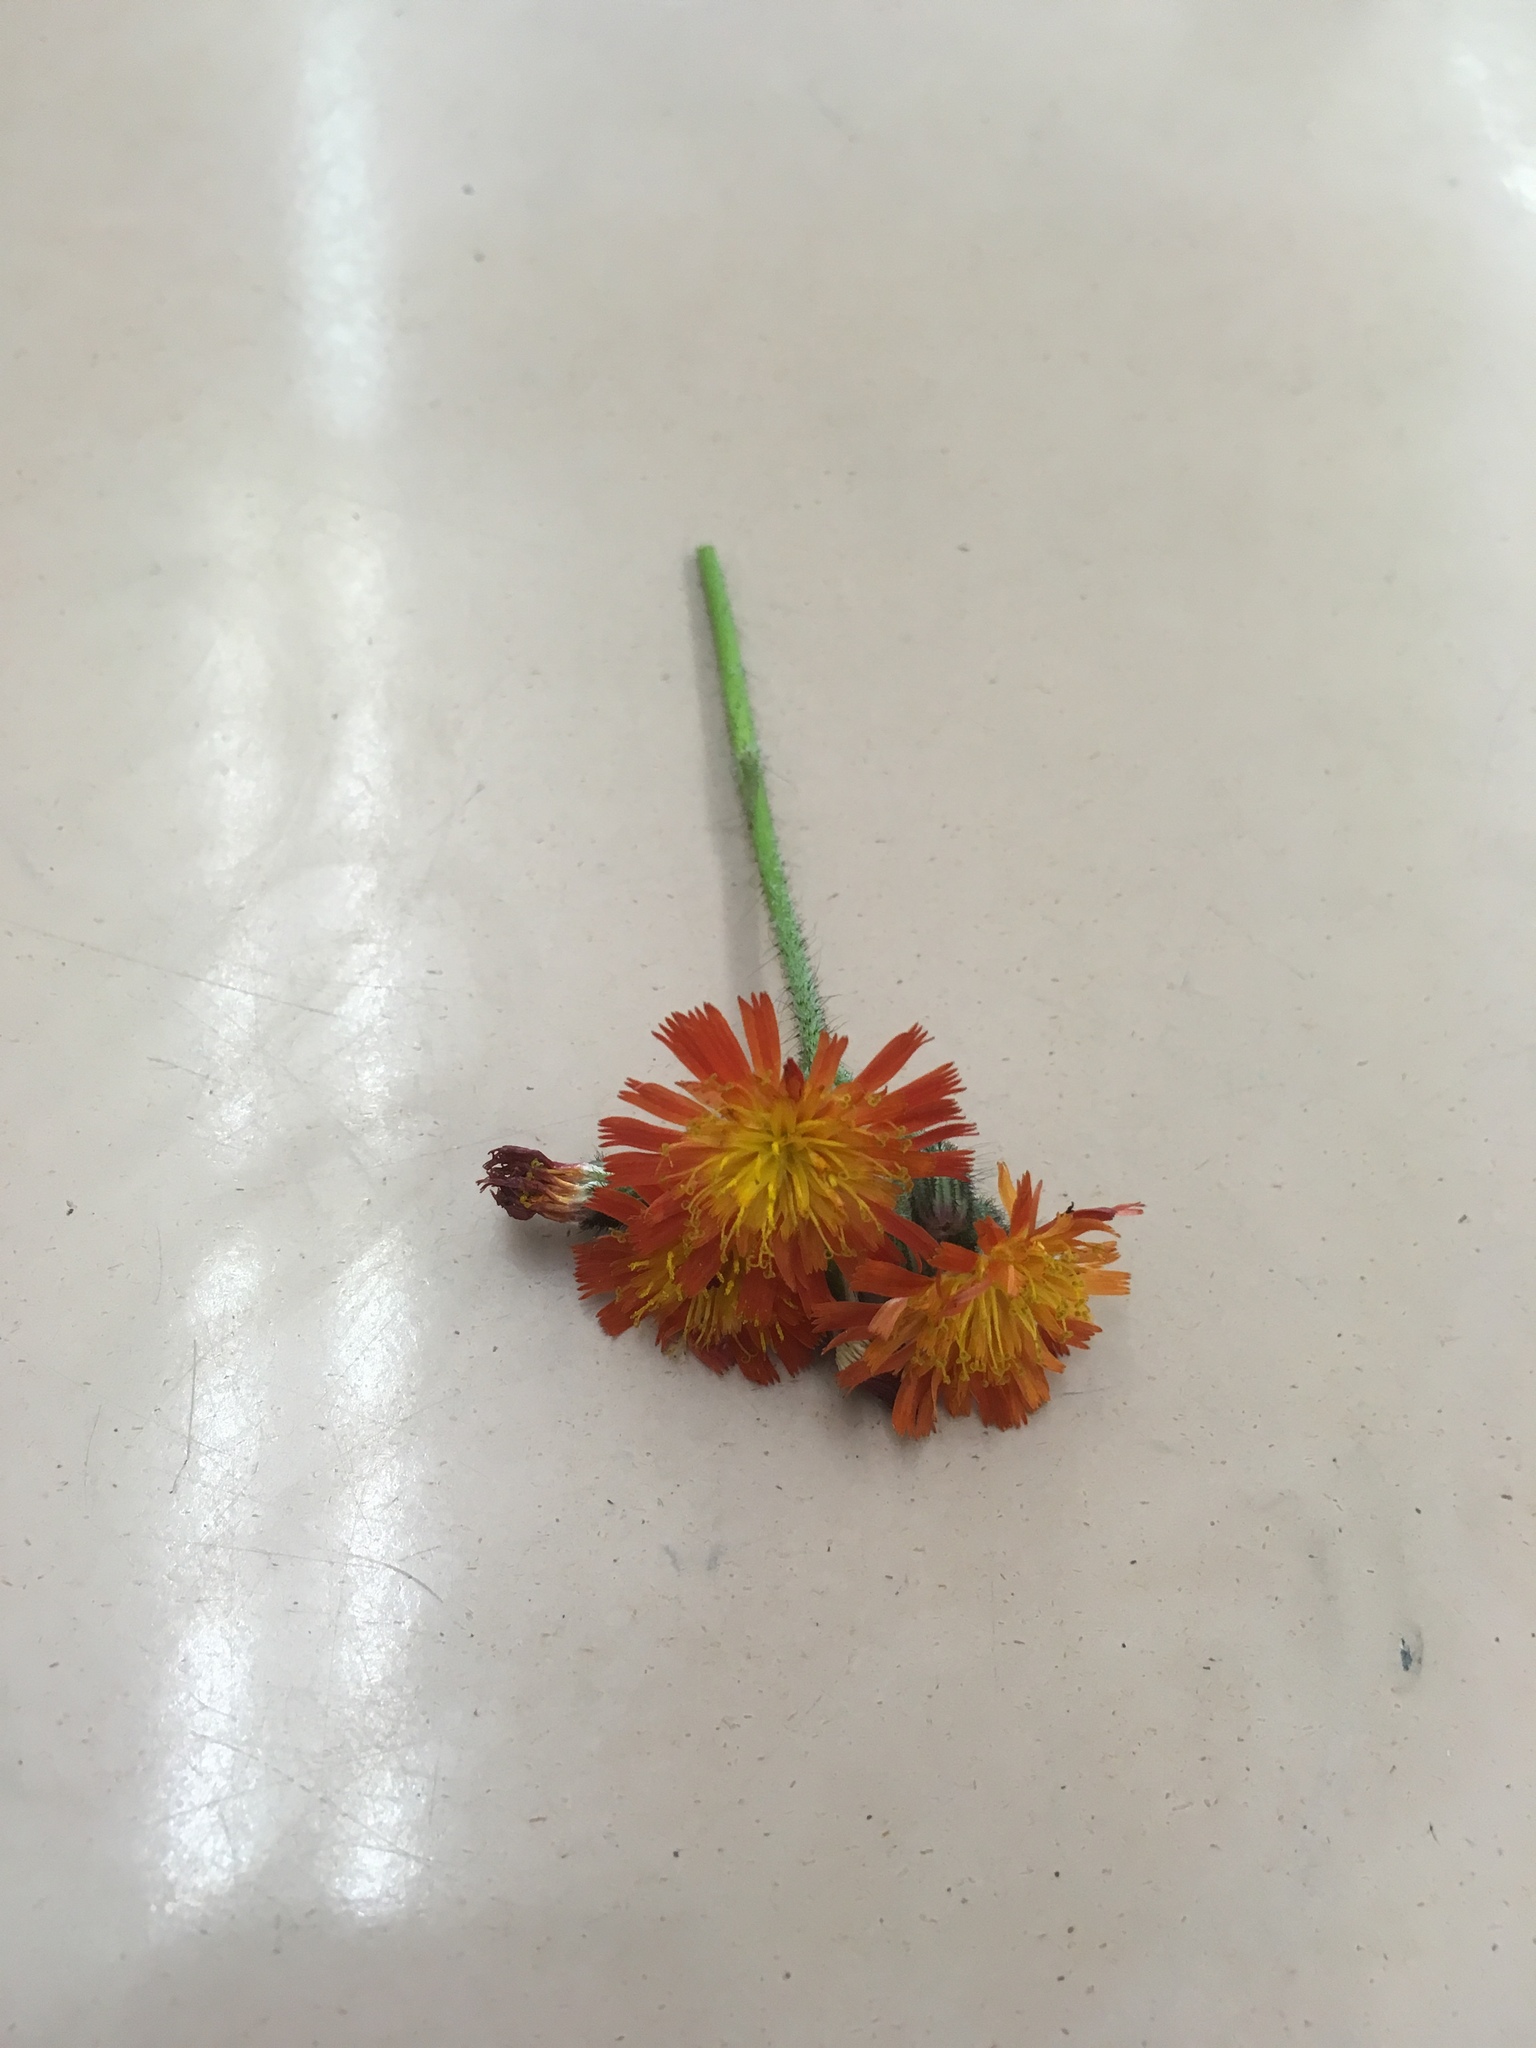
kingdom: Plantae
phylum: Tracheophyta
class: Magnoliopsida
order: Asterales
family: Asteraceae
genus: Pilosella
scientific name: Pilosella aurantiaca
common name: Fox-and-cubs
